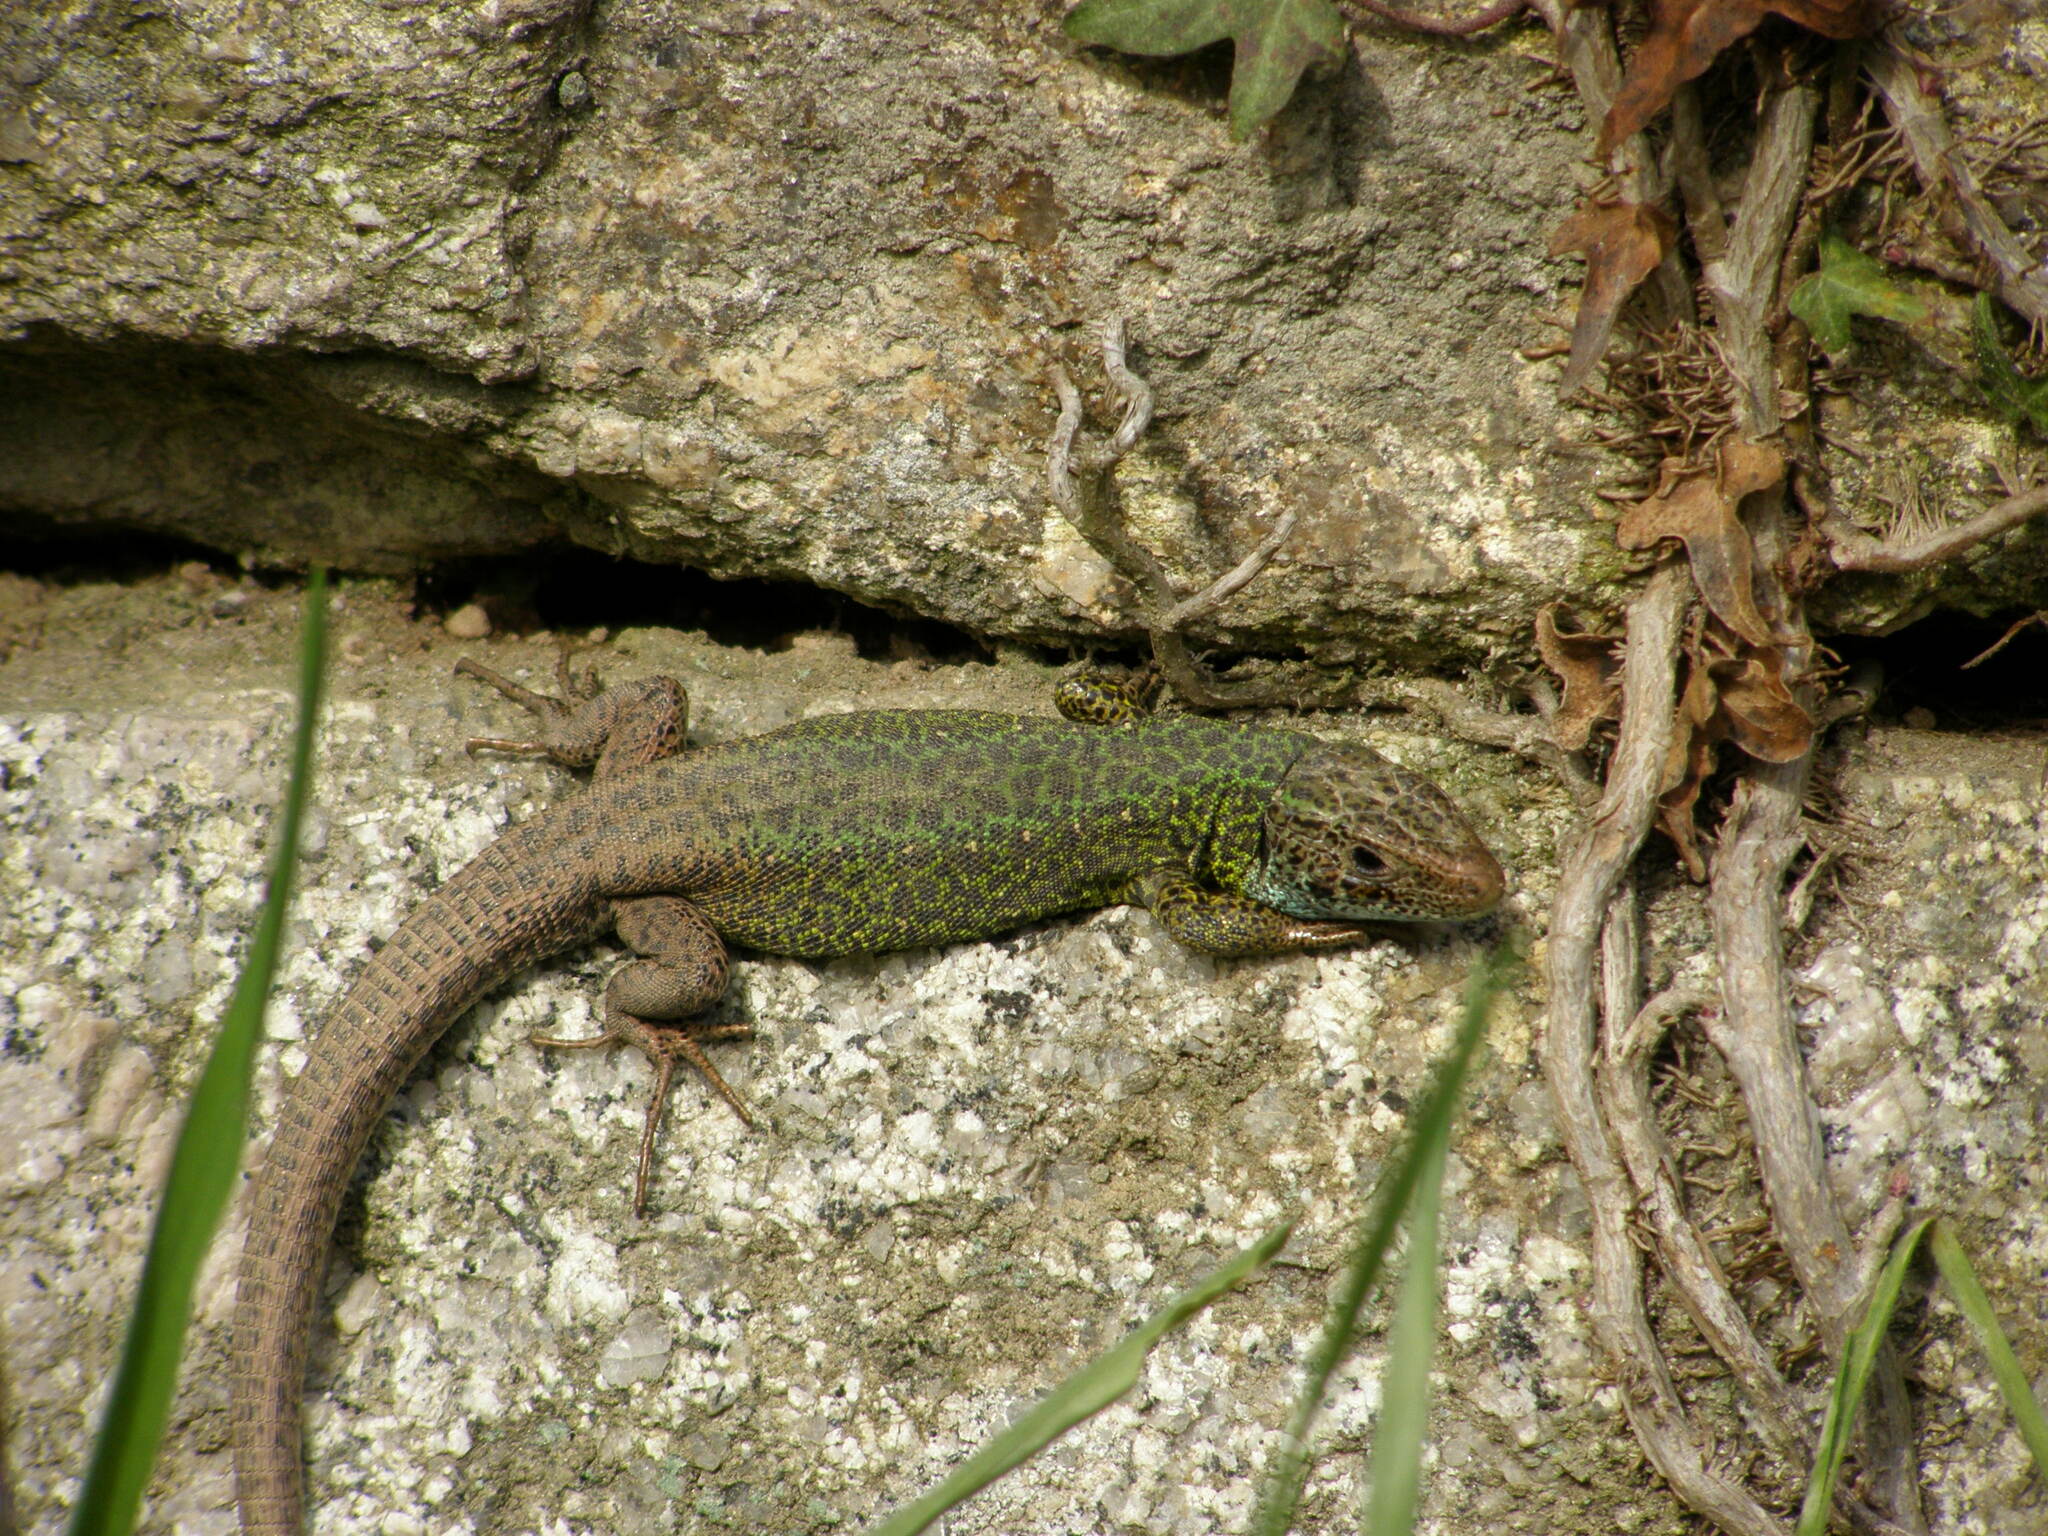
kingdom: Animalia
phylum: Chordata
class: Squamata
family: Lacertidae
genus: Lacerta
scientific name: Lacerta schreiberi
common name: Iberian emerald lizard
